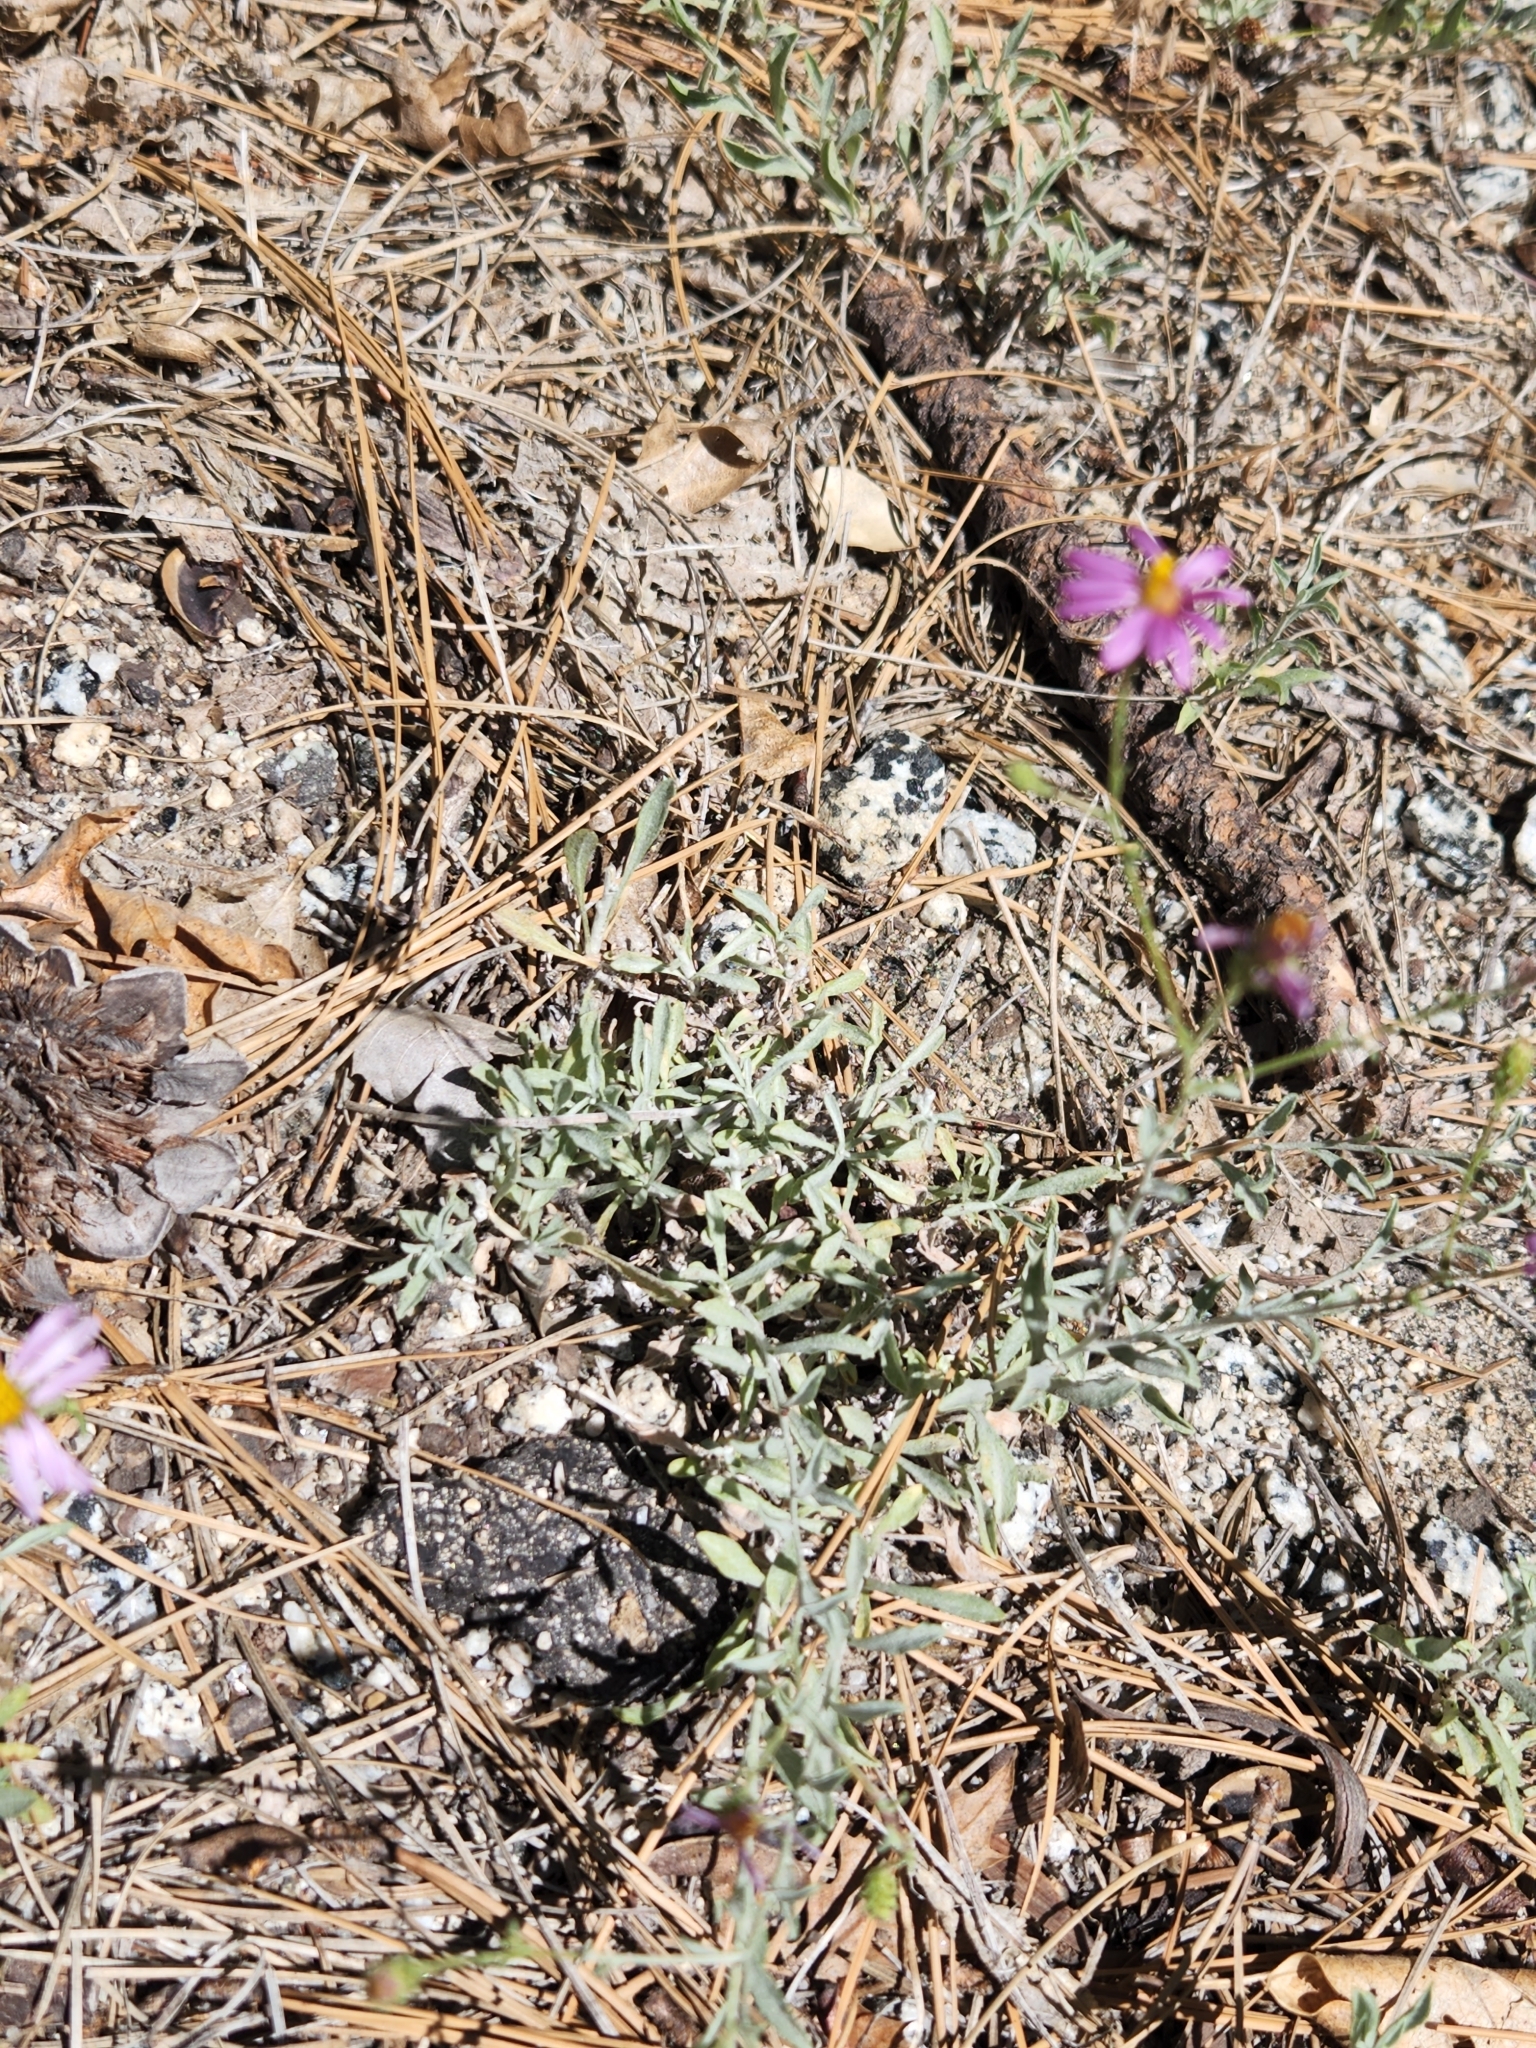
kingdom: Plantae
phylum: Tracheophyta
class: Magnoliopsida
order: Asterales
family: Asteraceae
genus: Corethrogyne
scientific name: Corethrogyne filaginifolia
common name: Sand-aster
